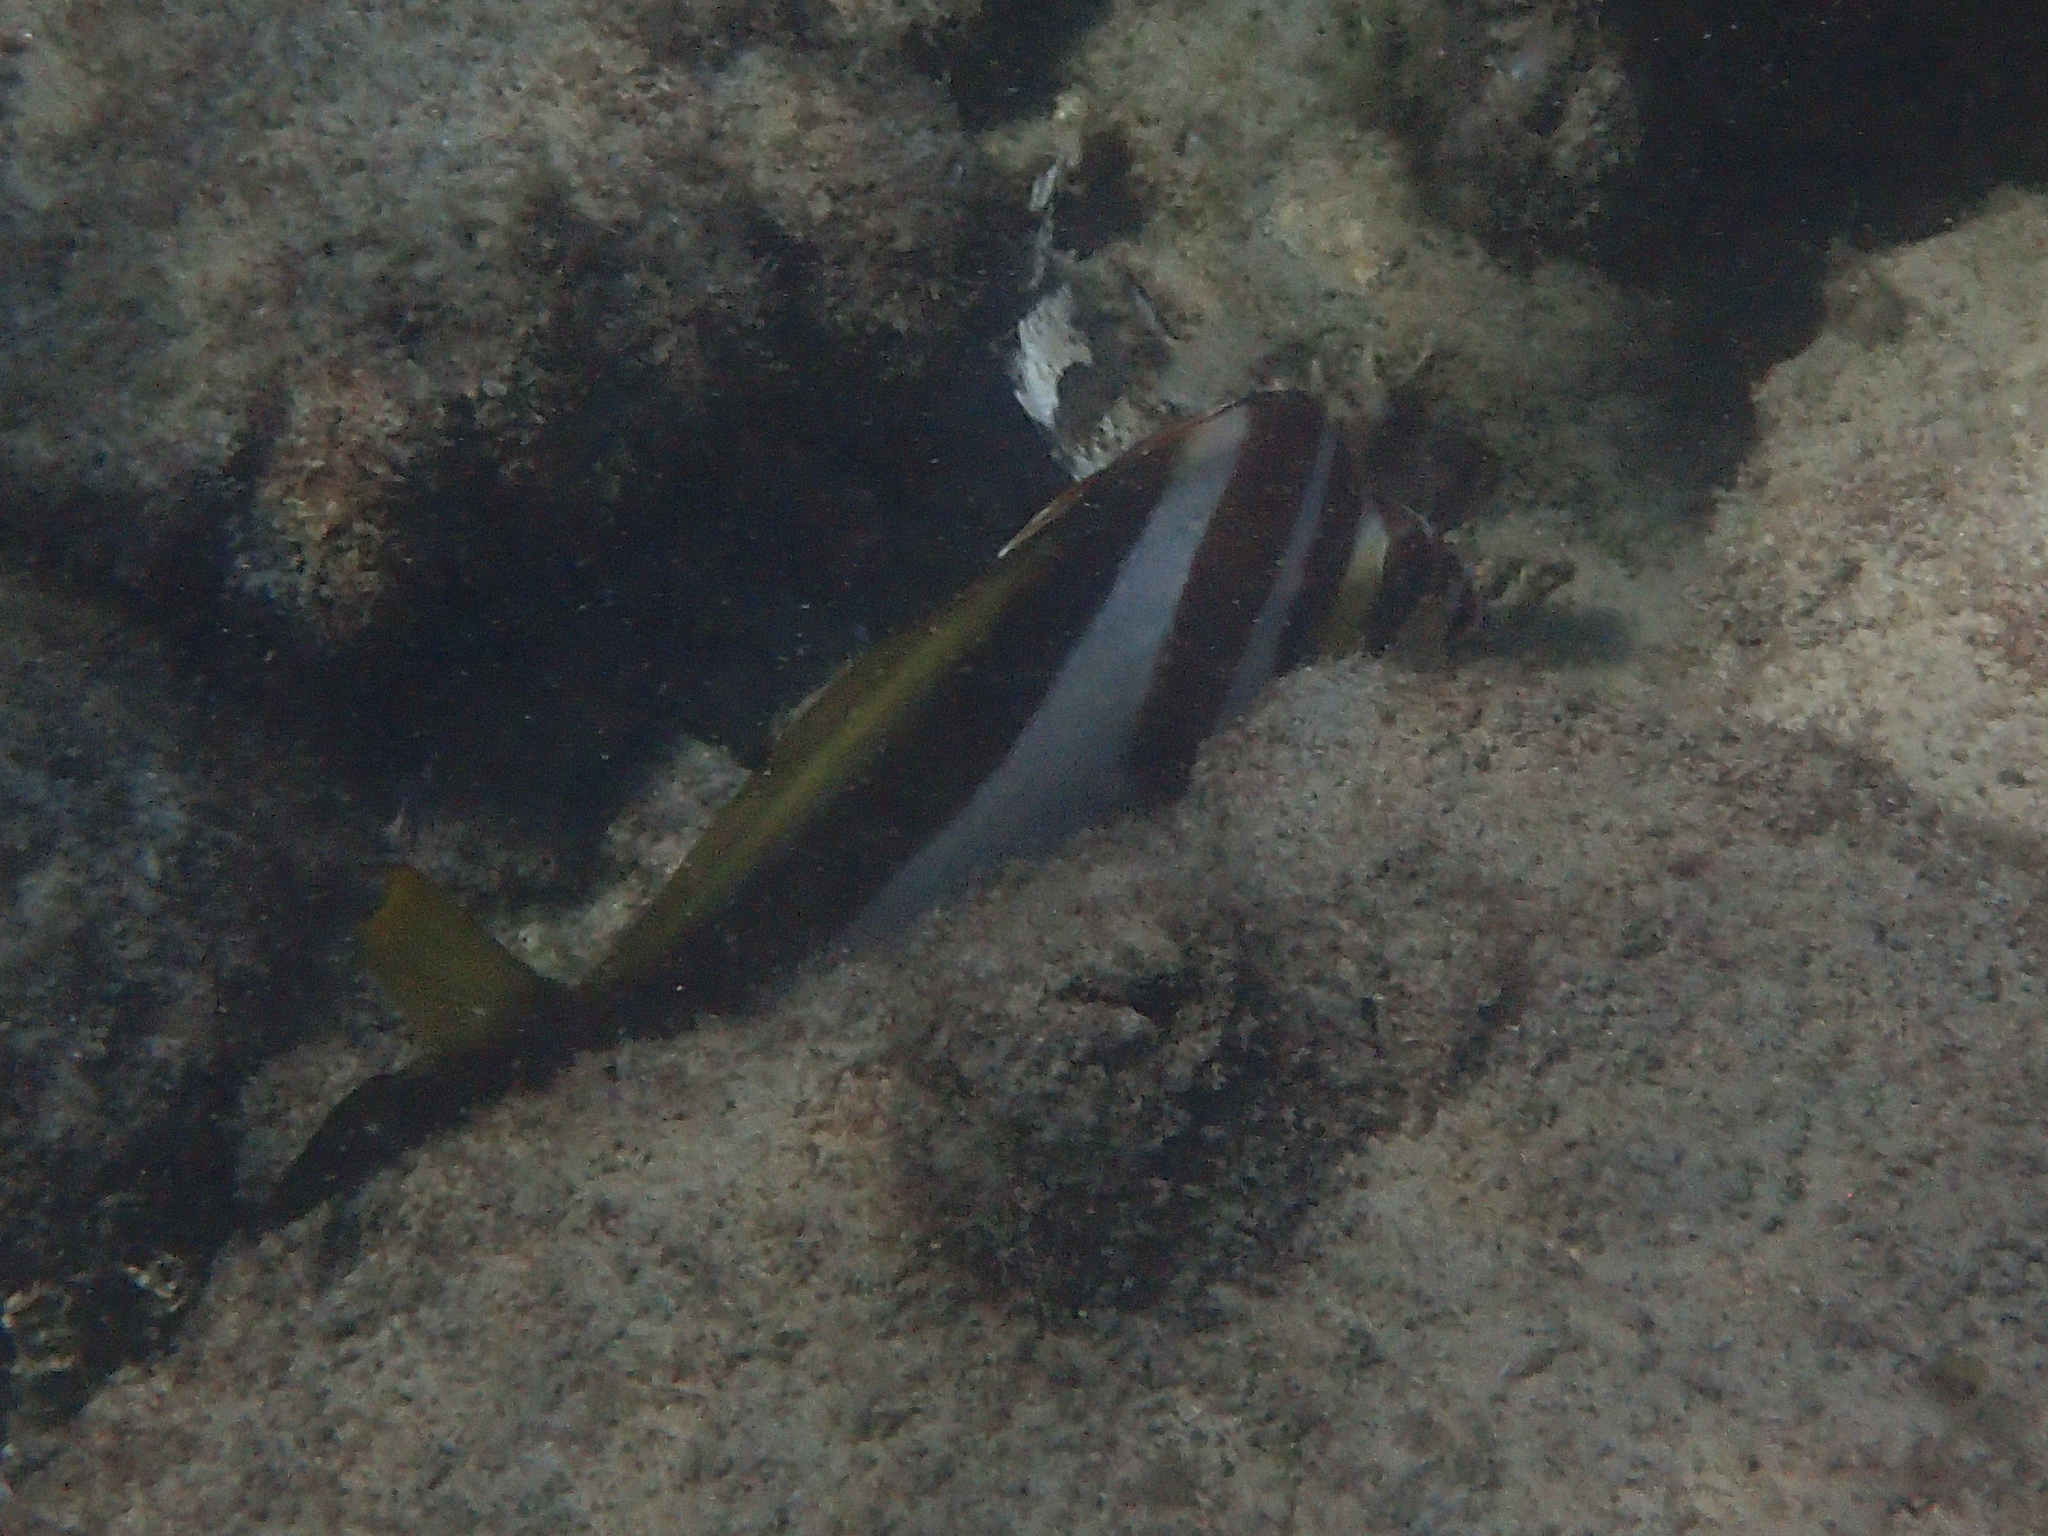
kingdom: Animalia
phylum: Chordata
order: Perciformes
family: Cheilodactylidae
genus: Cheilodactylus
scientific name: Cheilodactylus vestitus
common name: Crested morwong
